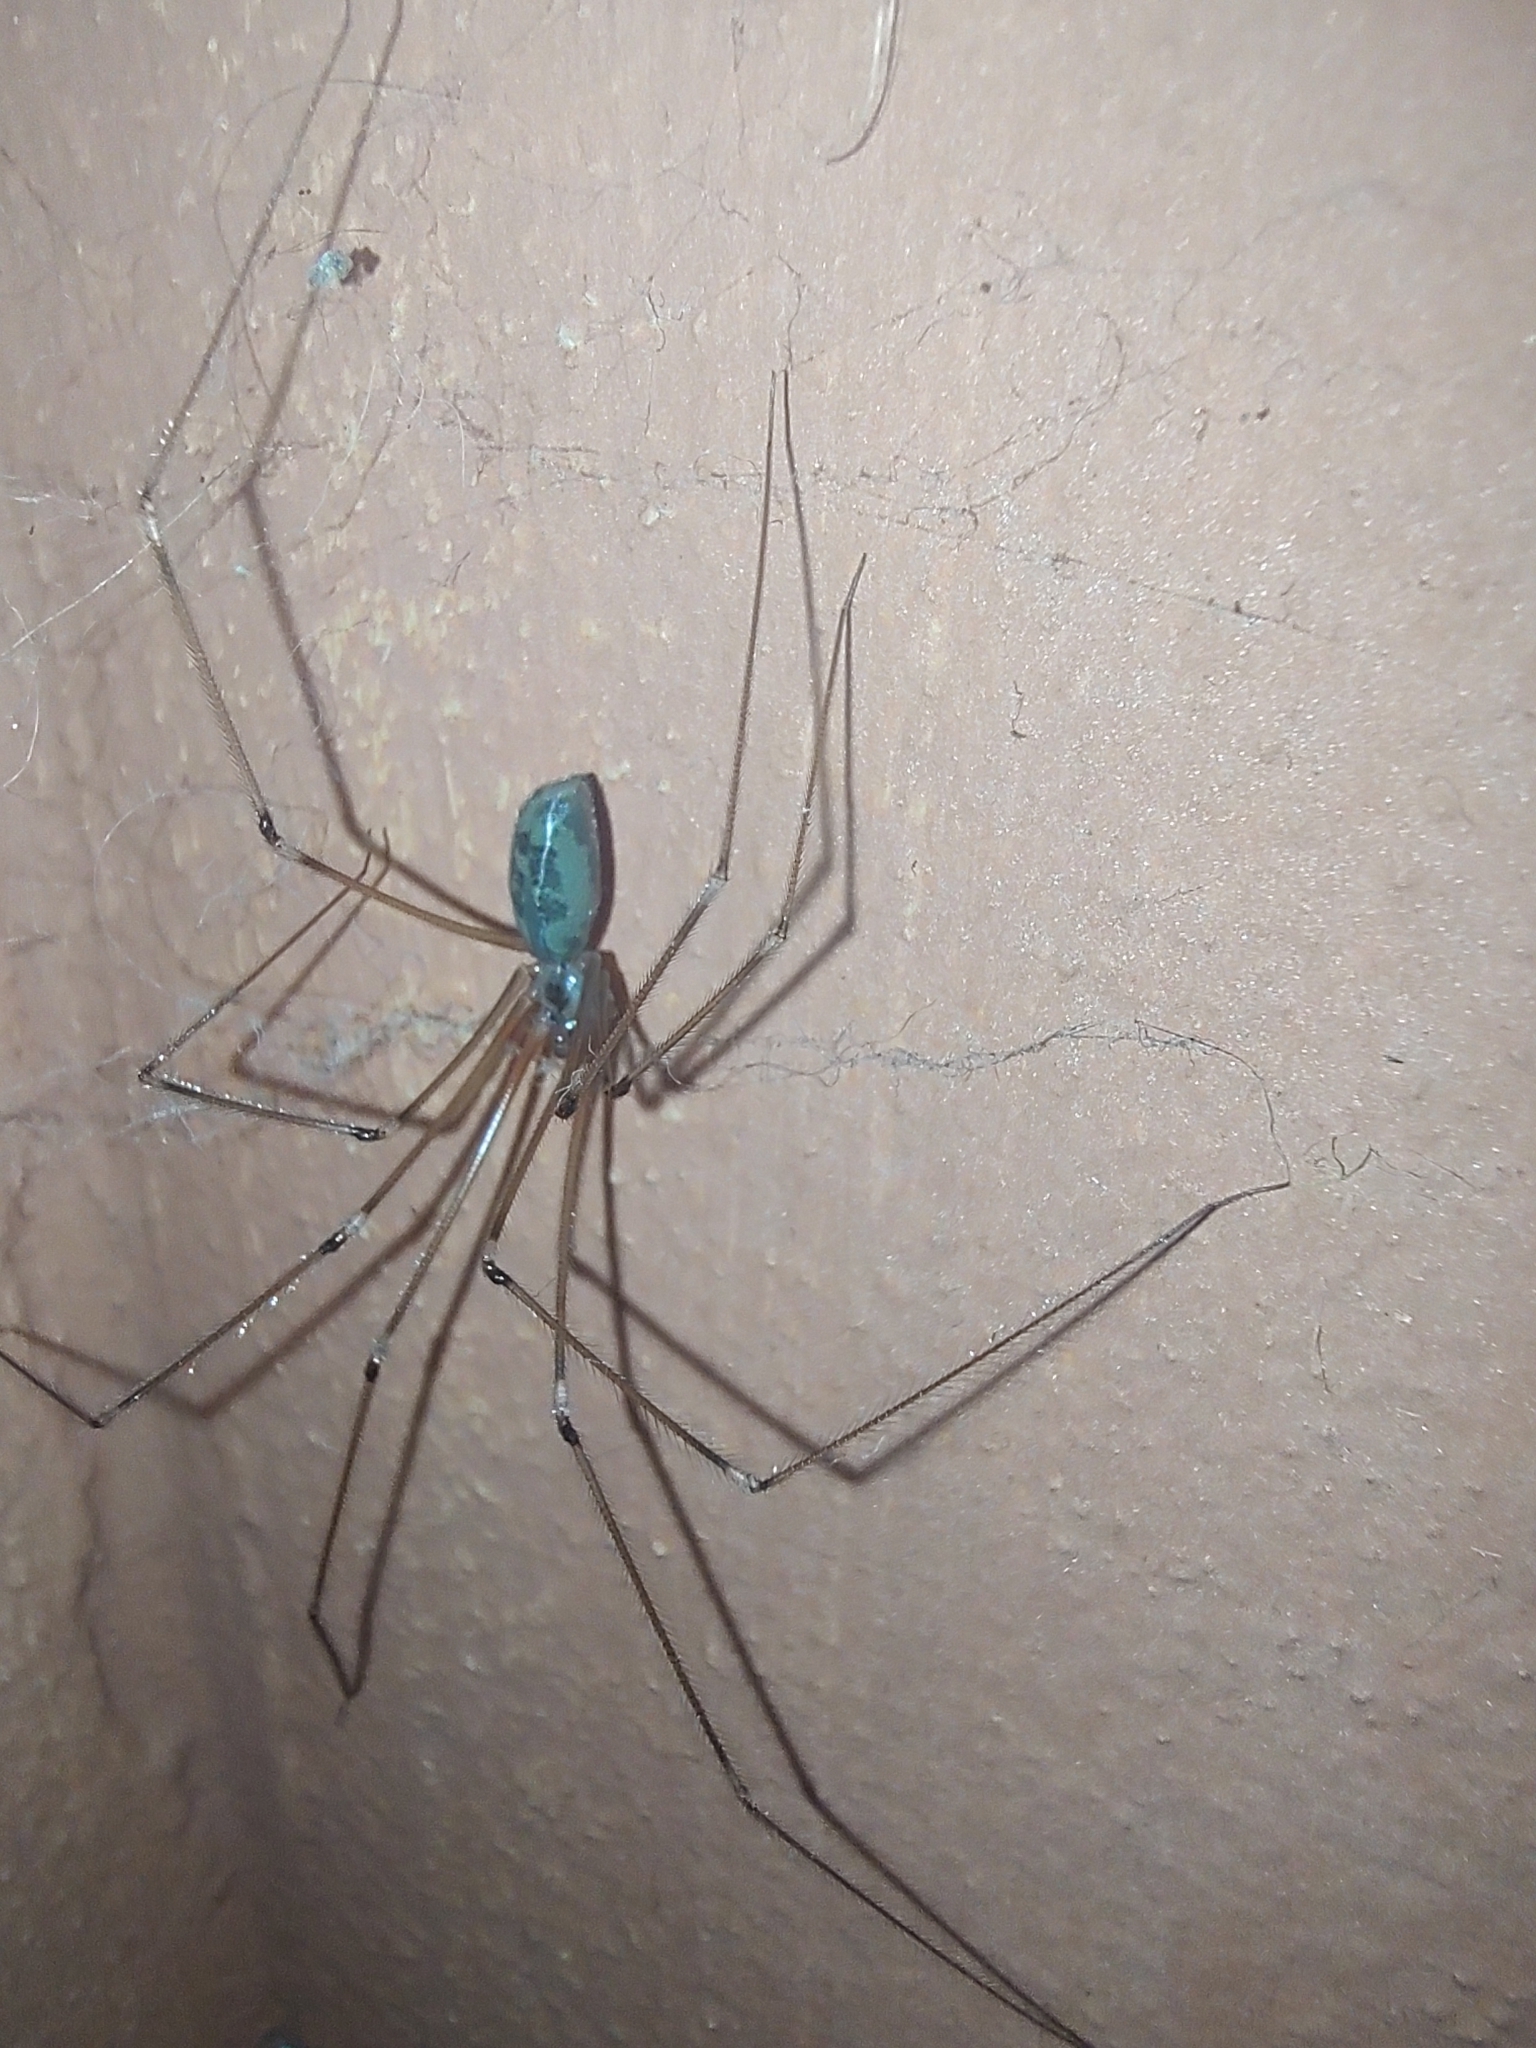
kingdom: Animalia
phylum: Arthropoda
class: Arachnida
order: Araneae
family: Pholcidae
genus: Pholcus
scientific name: Pholcus phalangioides
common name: Longbodied cellar spider
